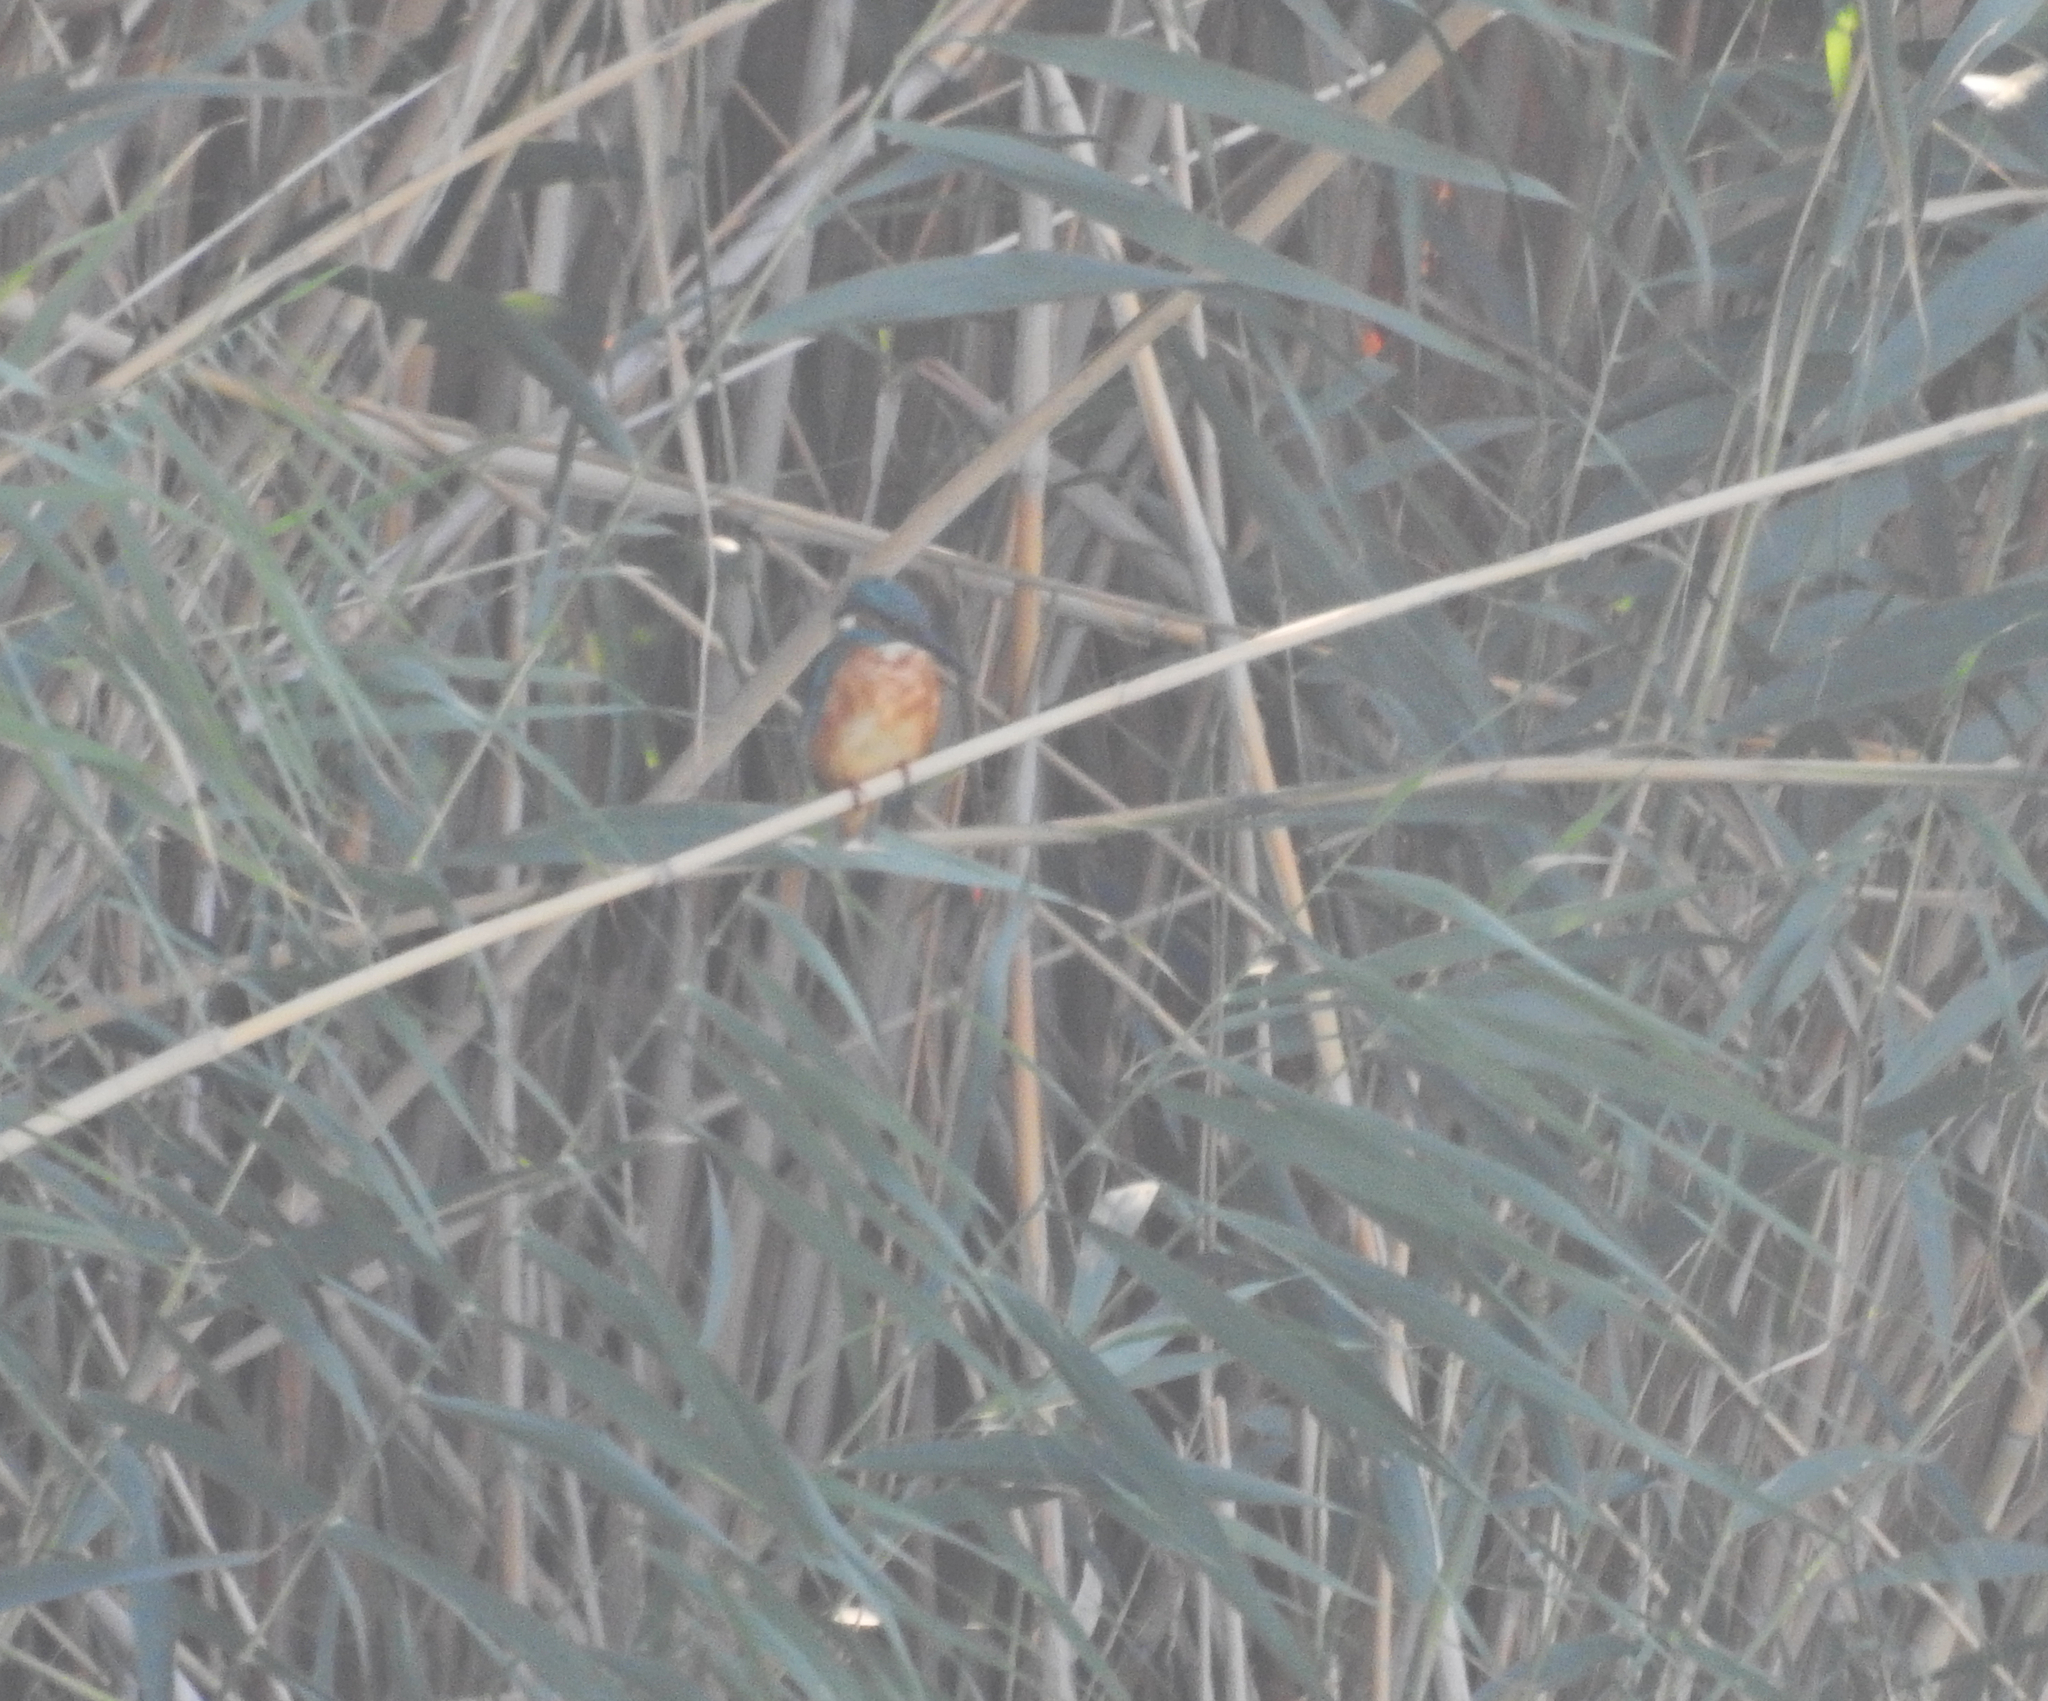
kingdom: Animalia
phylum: Chordata
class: Aves
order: Coraciiformes
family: Alcedinidae
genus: Alcedo
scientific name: Alcedo atthis
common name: Common kingfisher
